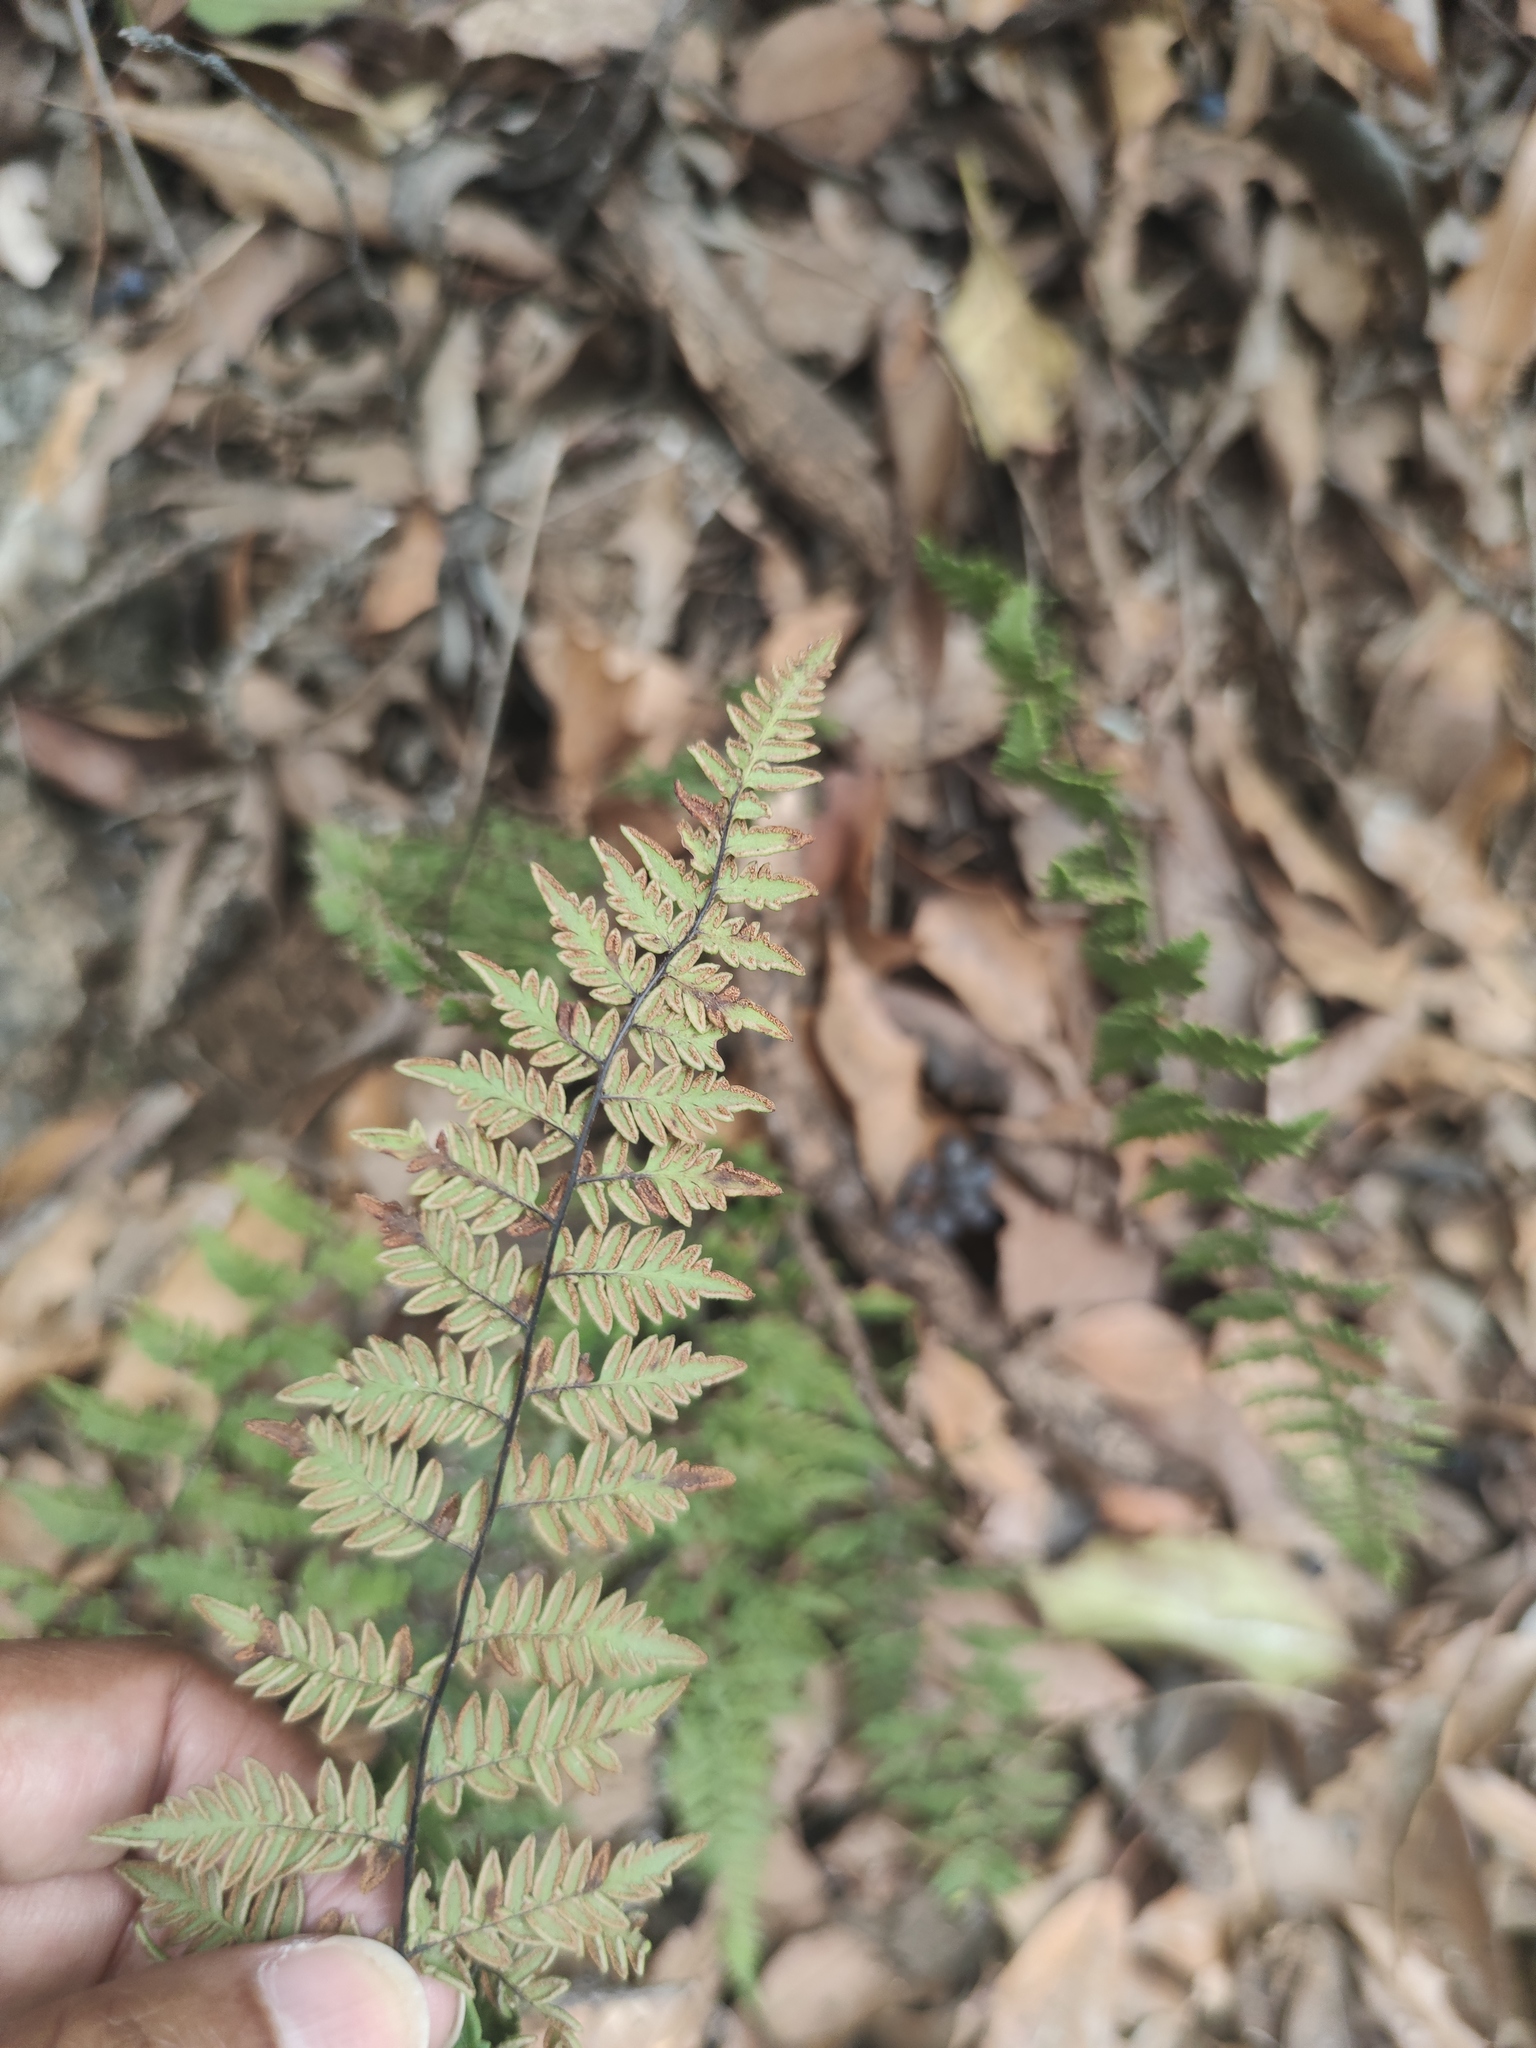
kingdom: Plantae
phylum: Tracheophyta
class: Polypodiopsida
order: Polypodiales
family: Pteridaceae
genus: Myriopteris
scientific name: Myriopteris alabamensis
